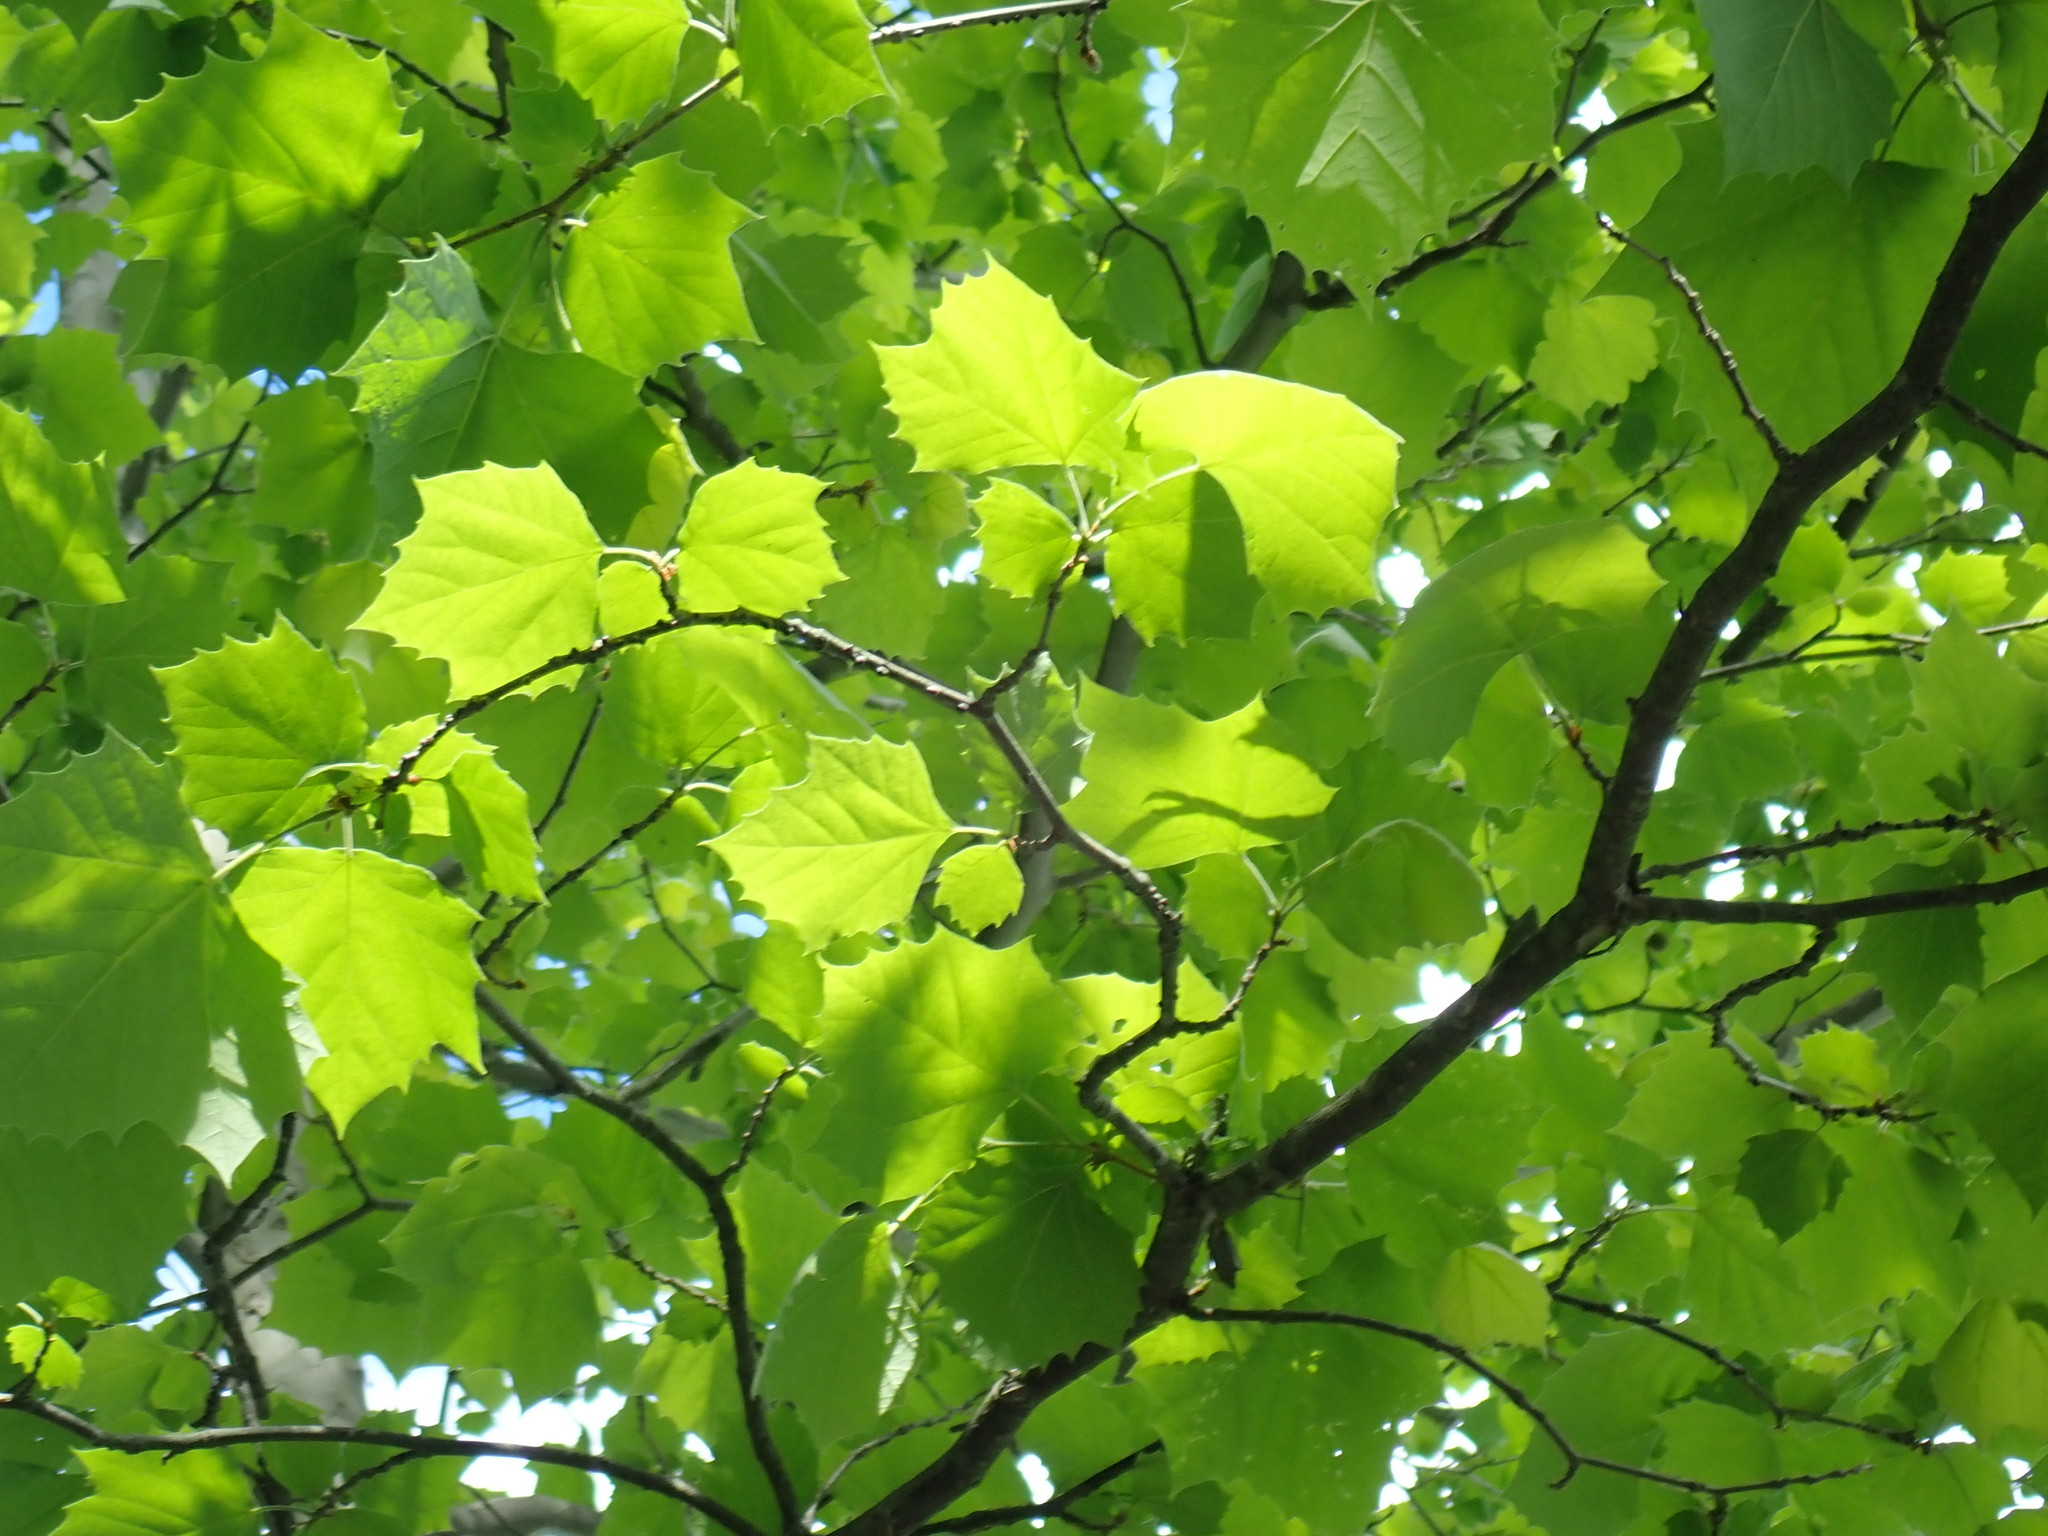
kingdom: Plantae
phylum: Tracheophyta
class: Magnoliopsida
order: Proteales
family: Platanaceae
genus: Platanus
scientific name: Platanus occidentalis
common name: American sycamore
